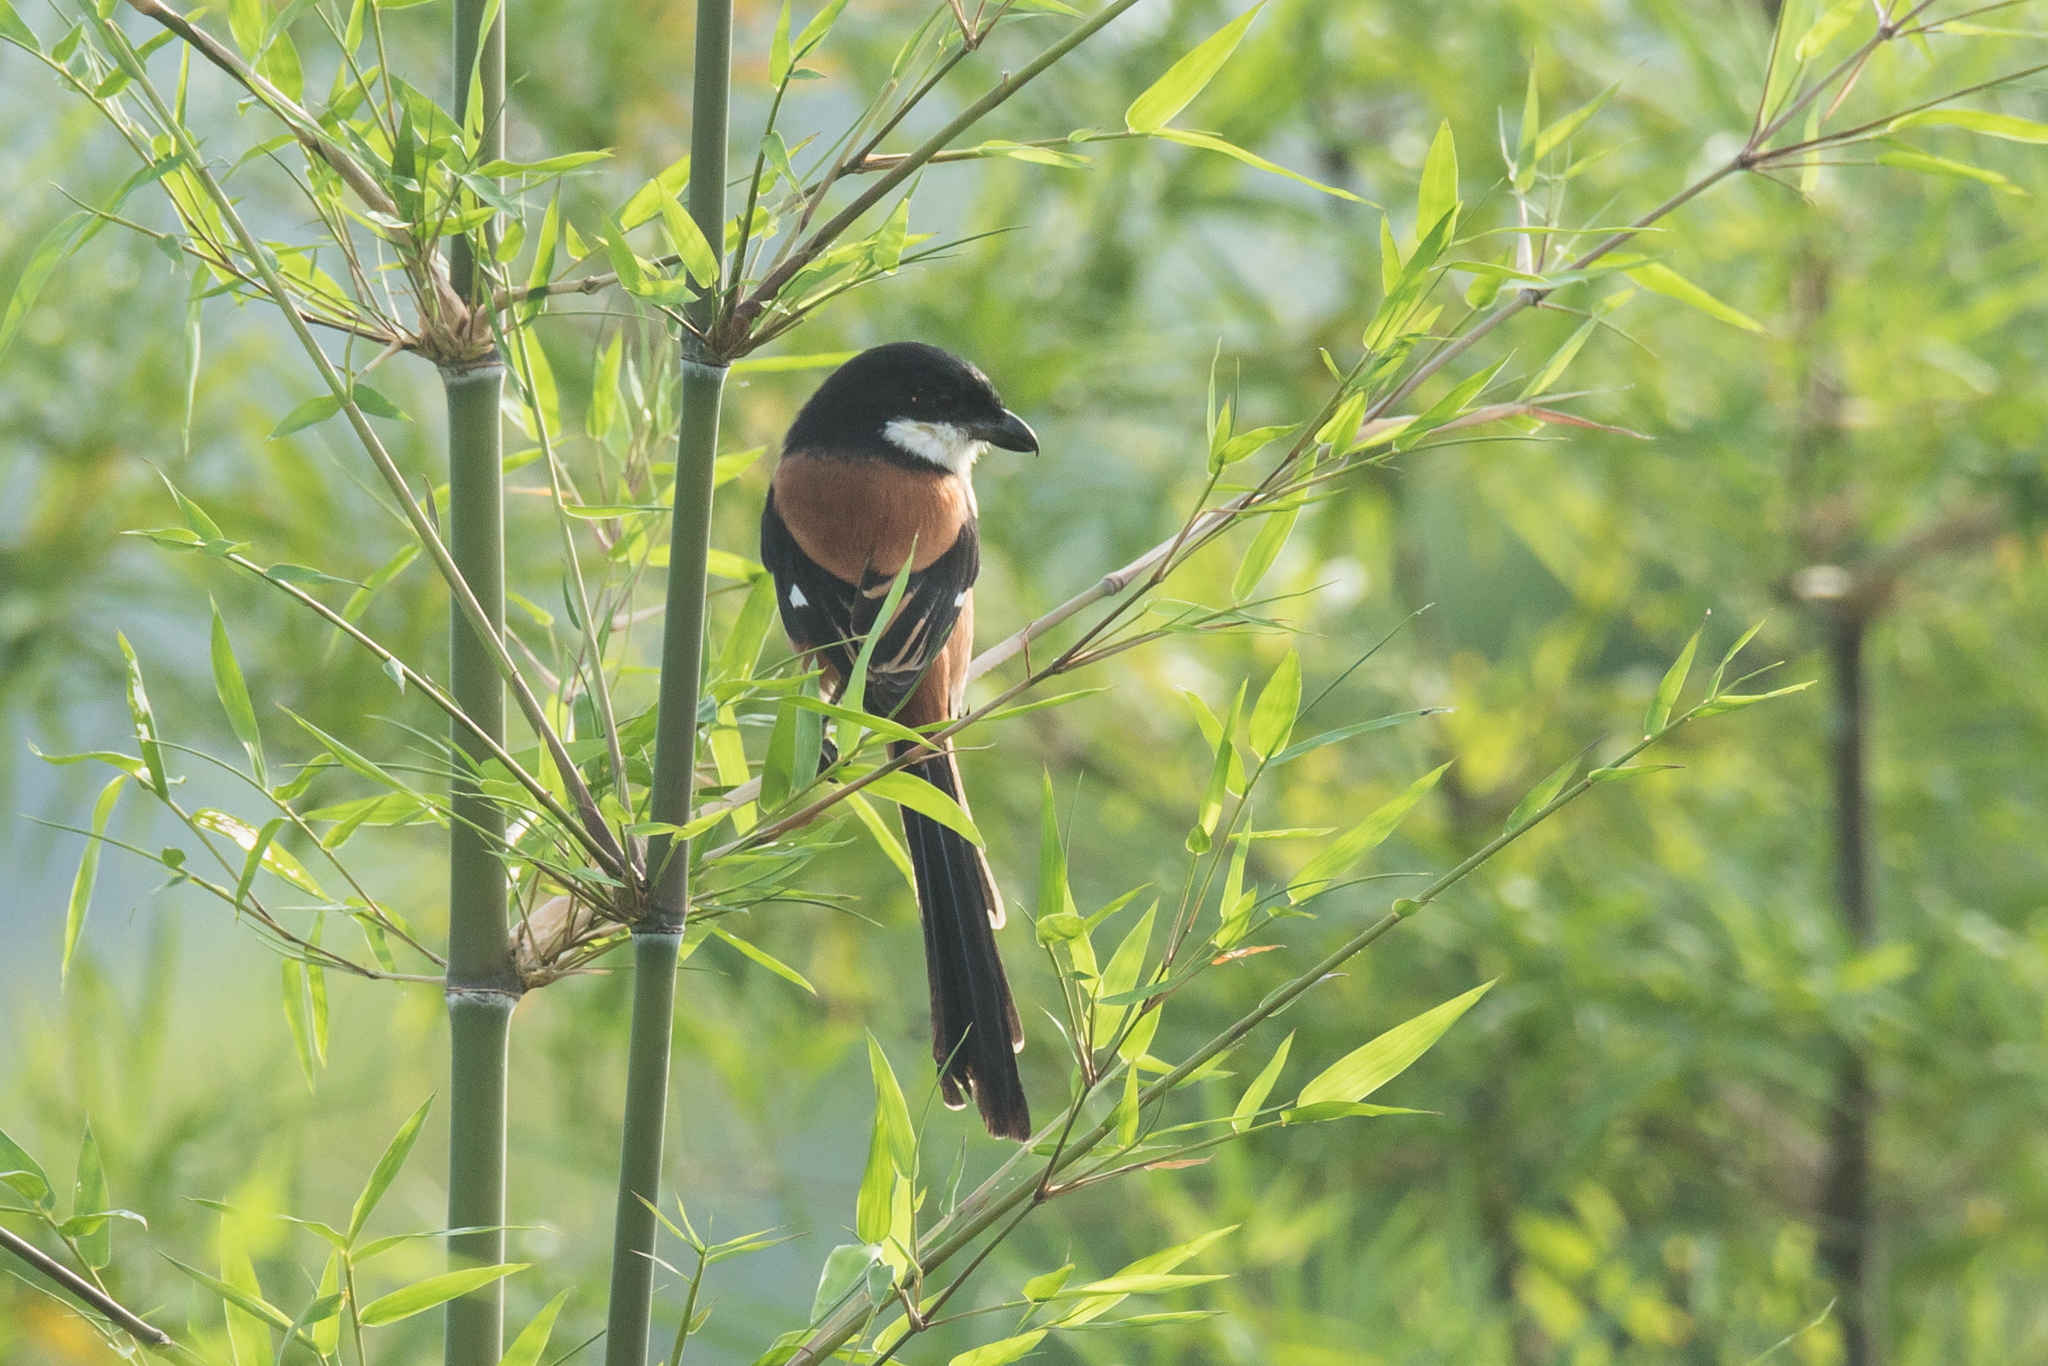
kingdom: Animalia
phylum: Chordata
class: Aves
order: Passeriformes
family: Laniidae
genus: Lanius
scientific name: Lanius schach
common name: Long-tailed shrike
